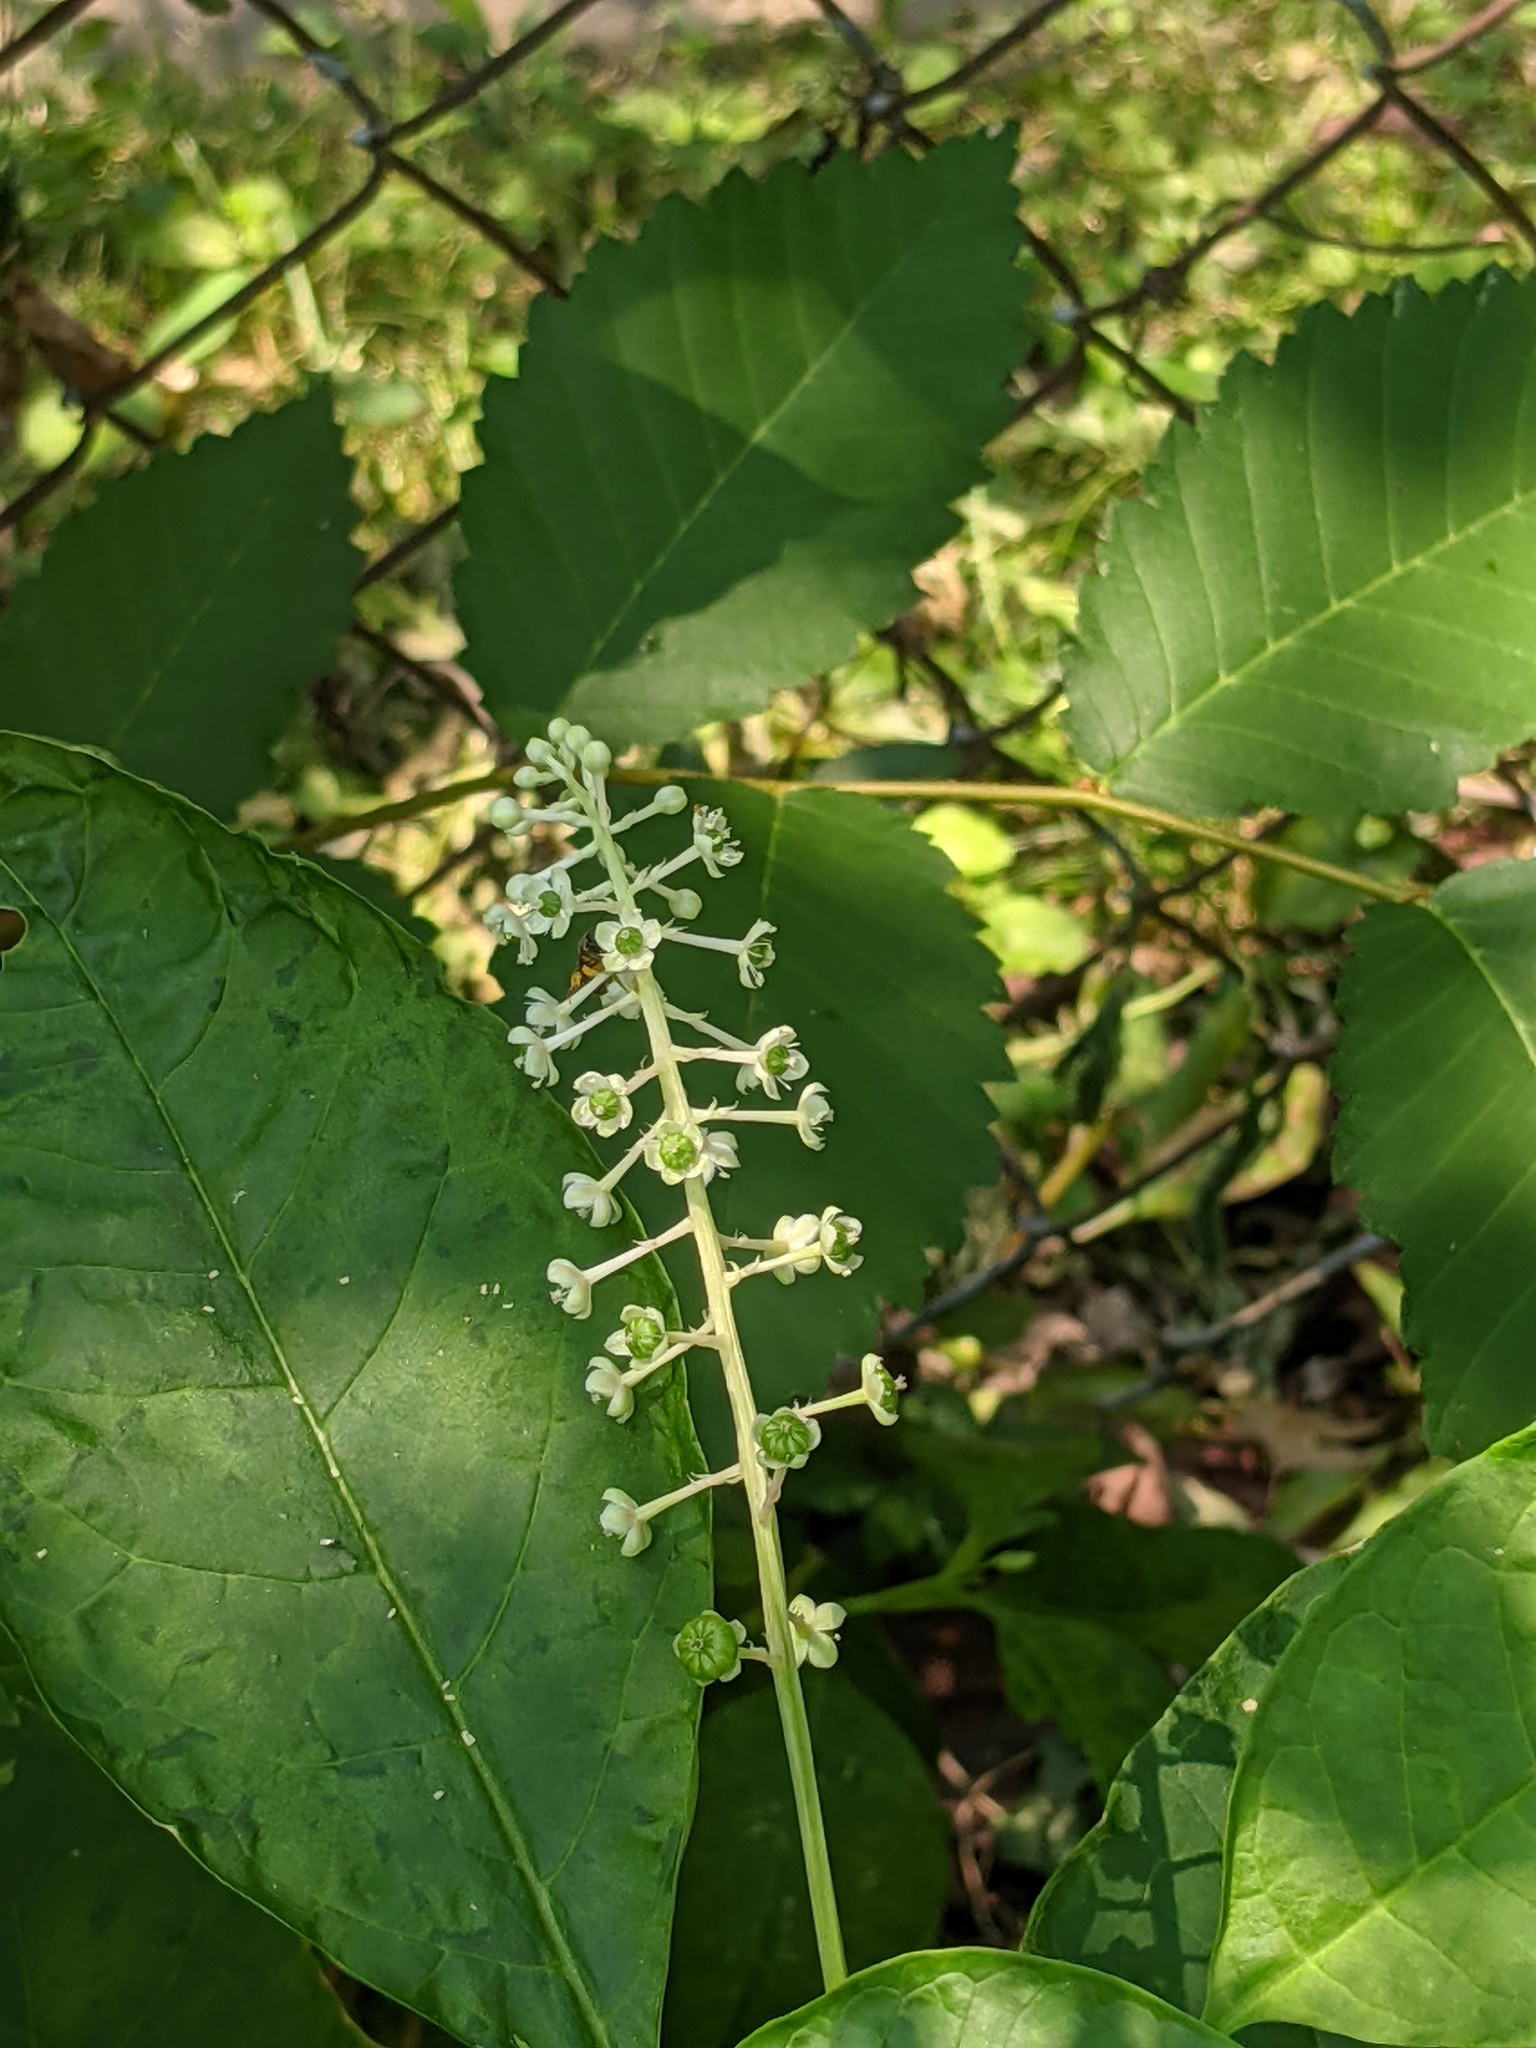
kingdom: Animalia
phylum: Arthropoda
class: Insecta
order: Hymenoptera
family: Halictidae
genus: Dialictus
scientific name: Dialictus
